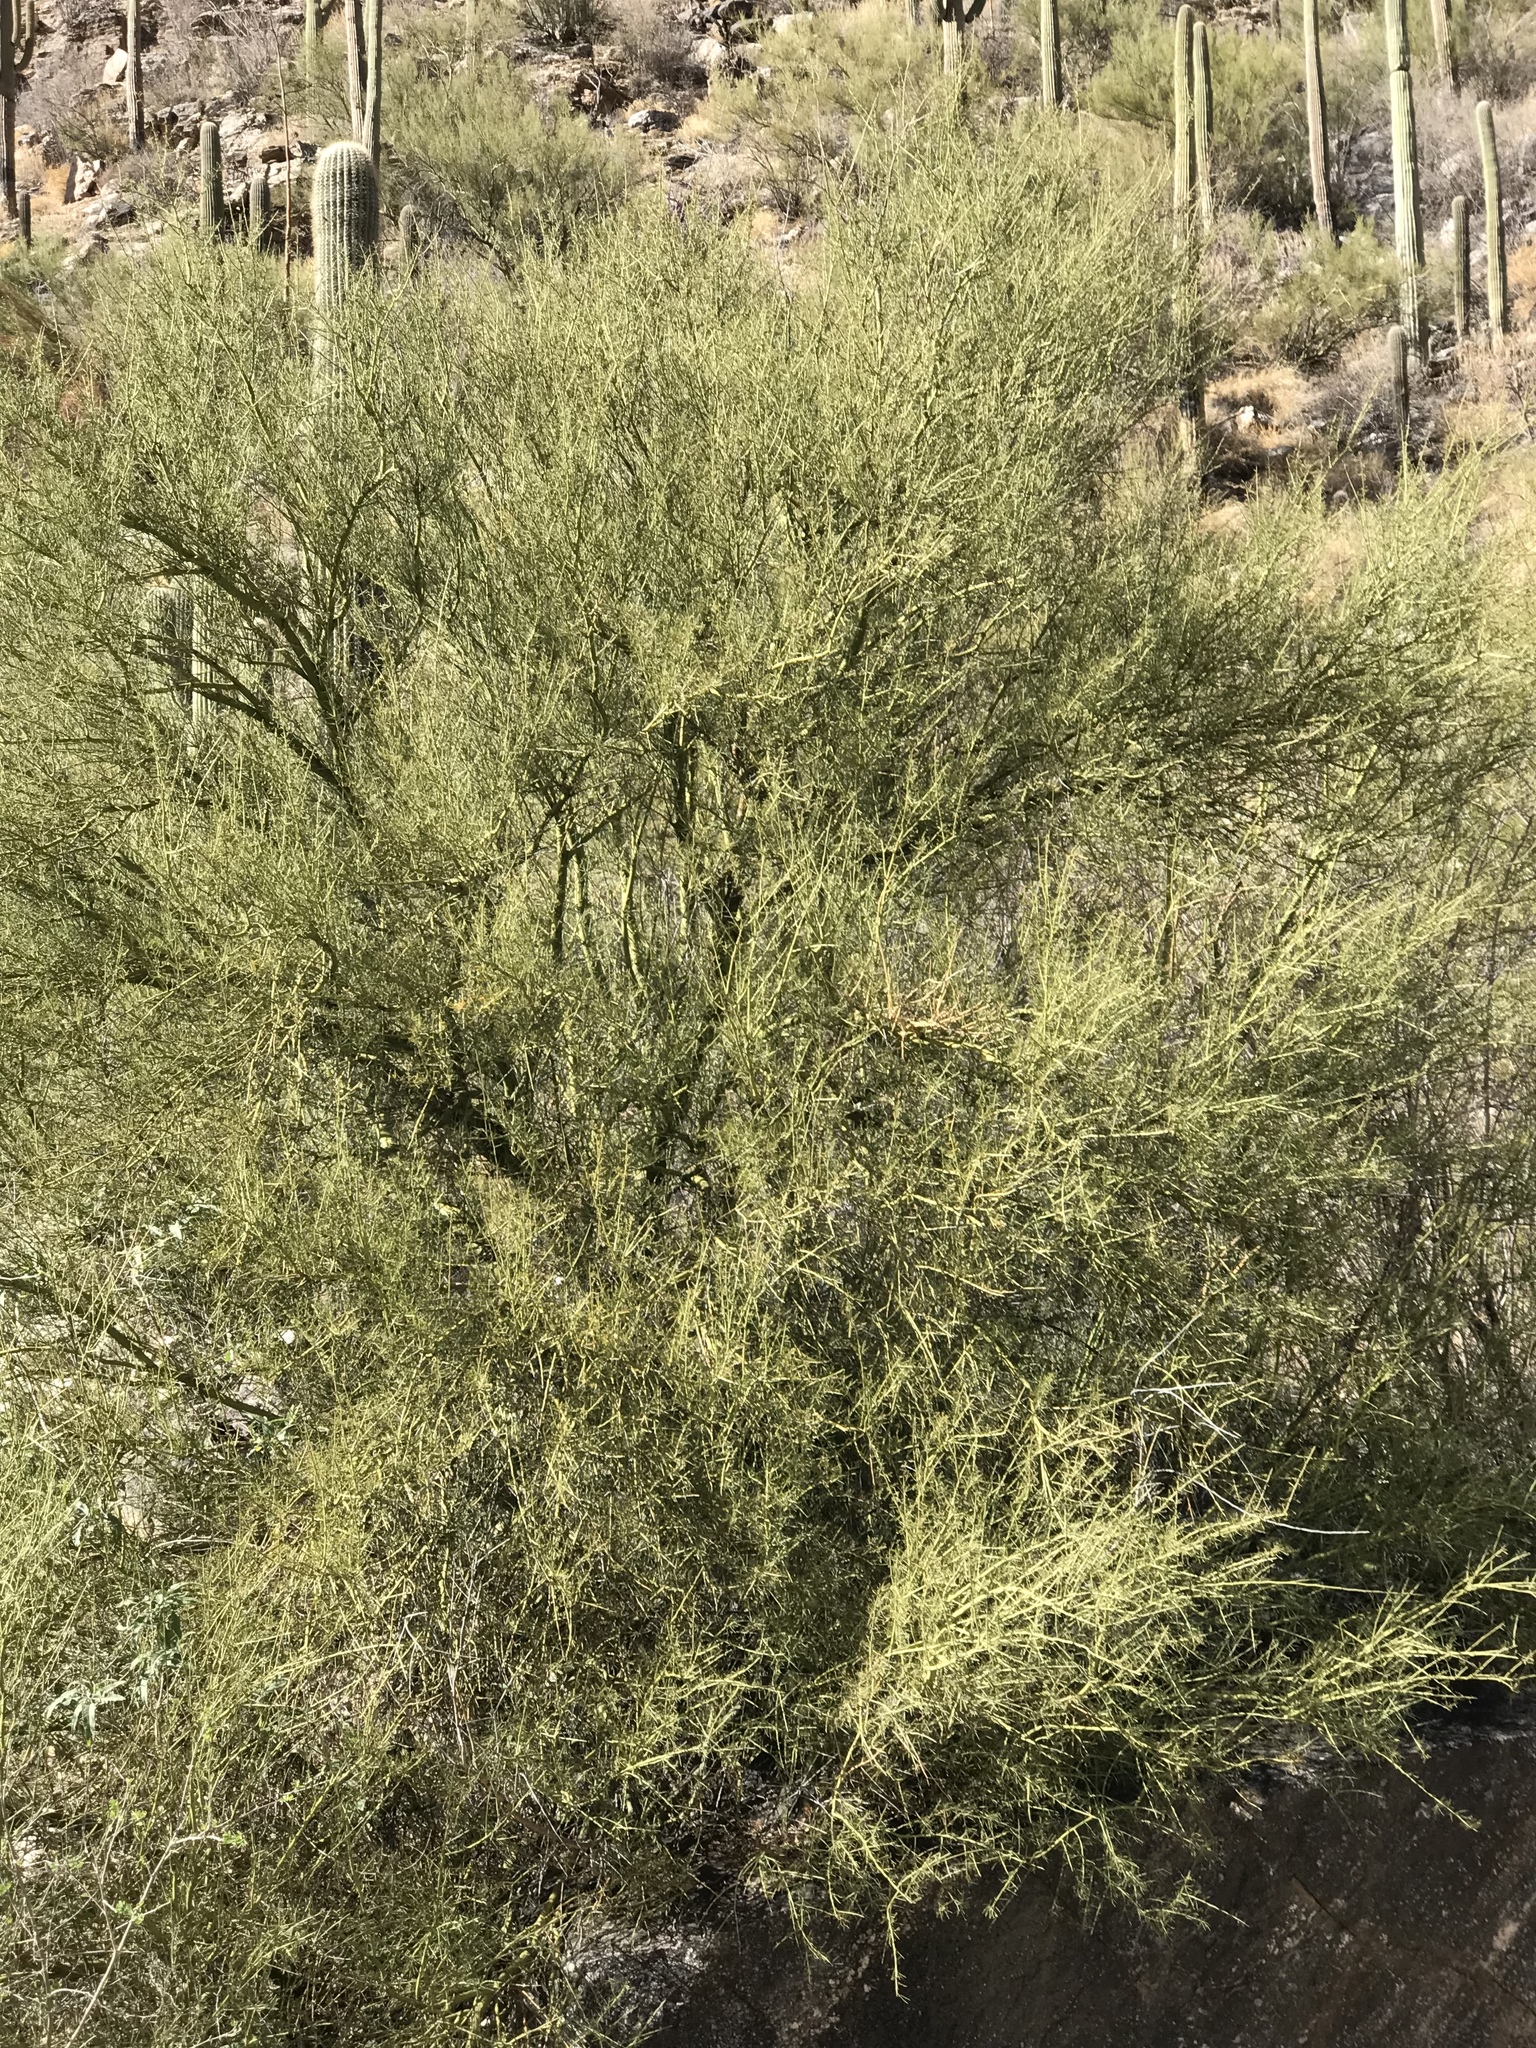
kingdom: Plantae
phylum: Tracheophyta
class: Magnoliopsida
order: Fabales
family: Fabaceae
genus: Parkinsonia
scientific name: Parkinsonia microphylla
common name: Yellow paloverde
